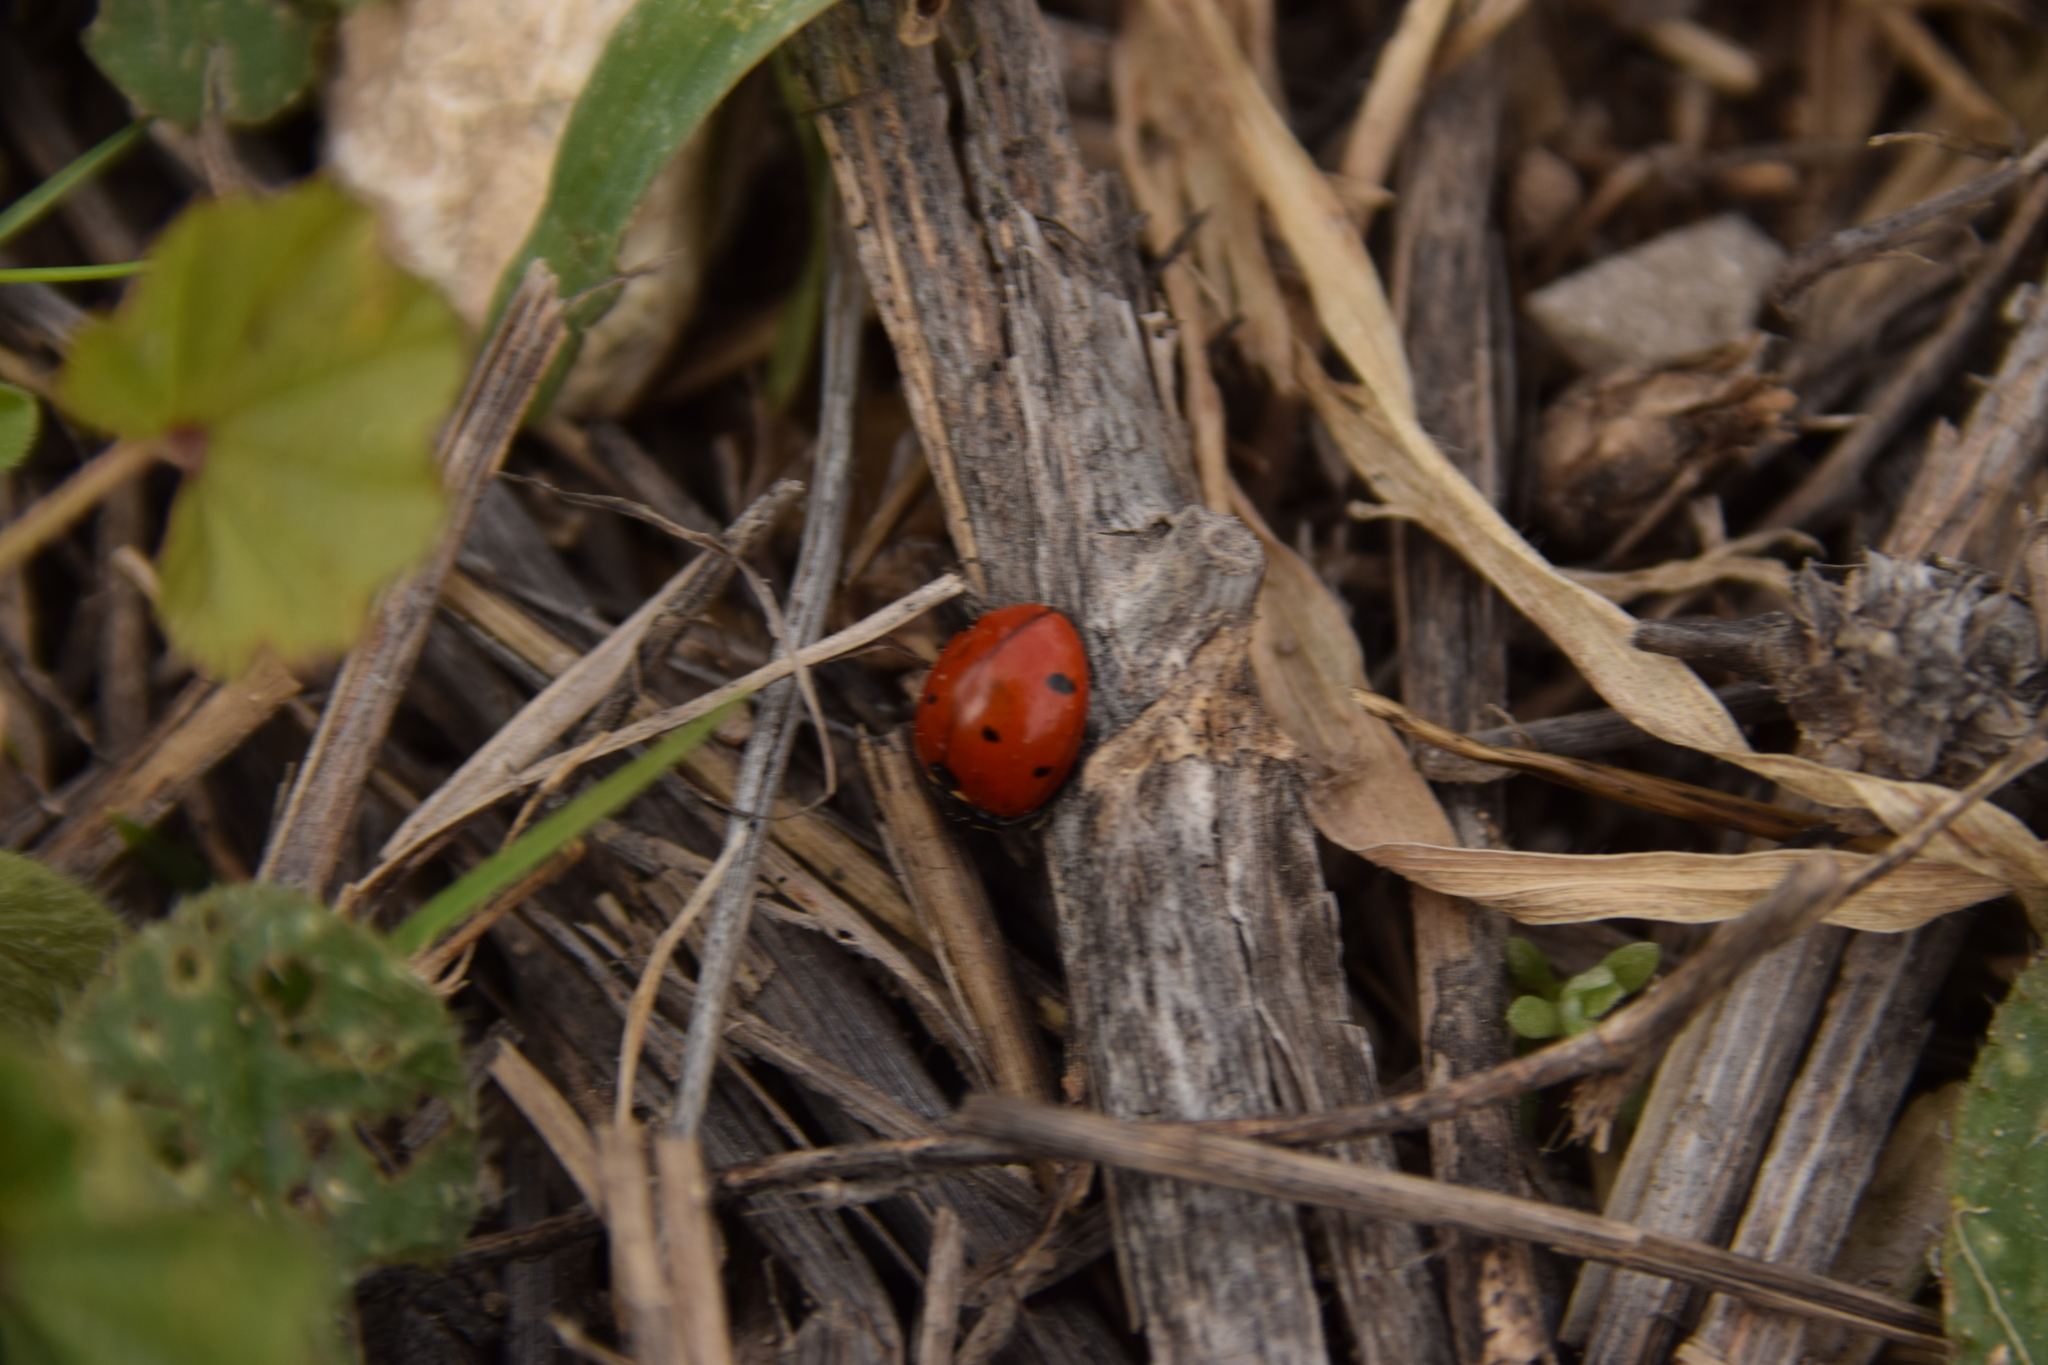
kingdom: Animalia
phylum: Arthropoda
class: Insecta
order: Coleoptera
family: Coccinellidae
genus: Coccinella
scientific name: Coccinella septempunctata
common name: Sevenspotted lady beetle
